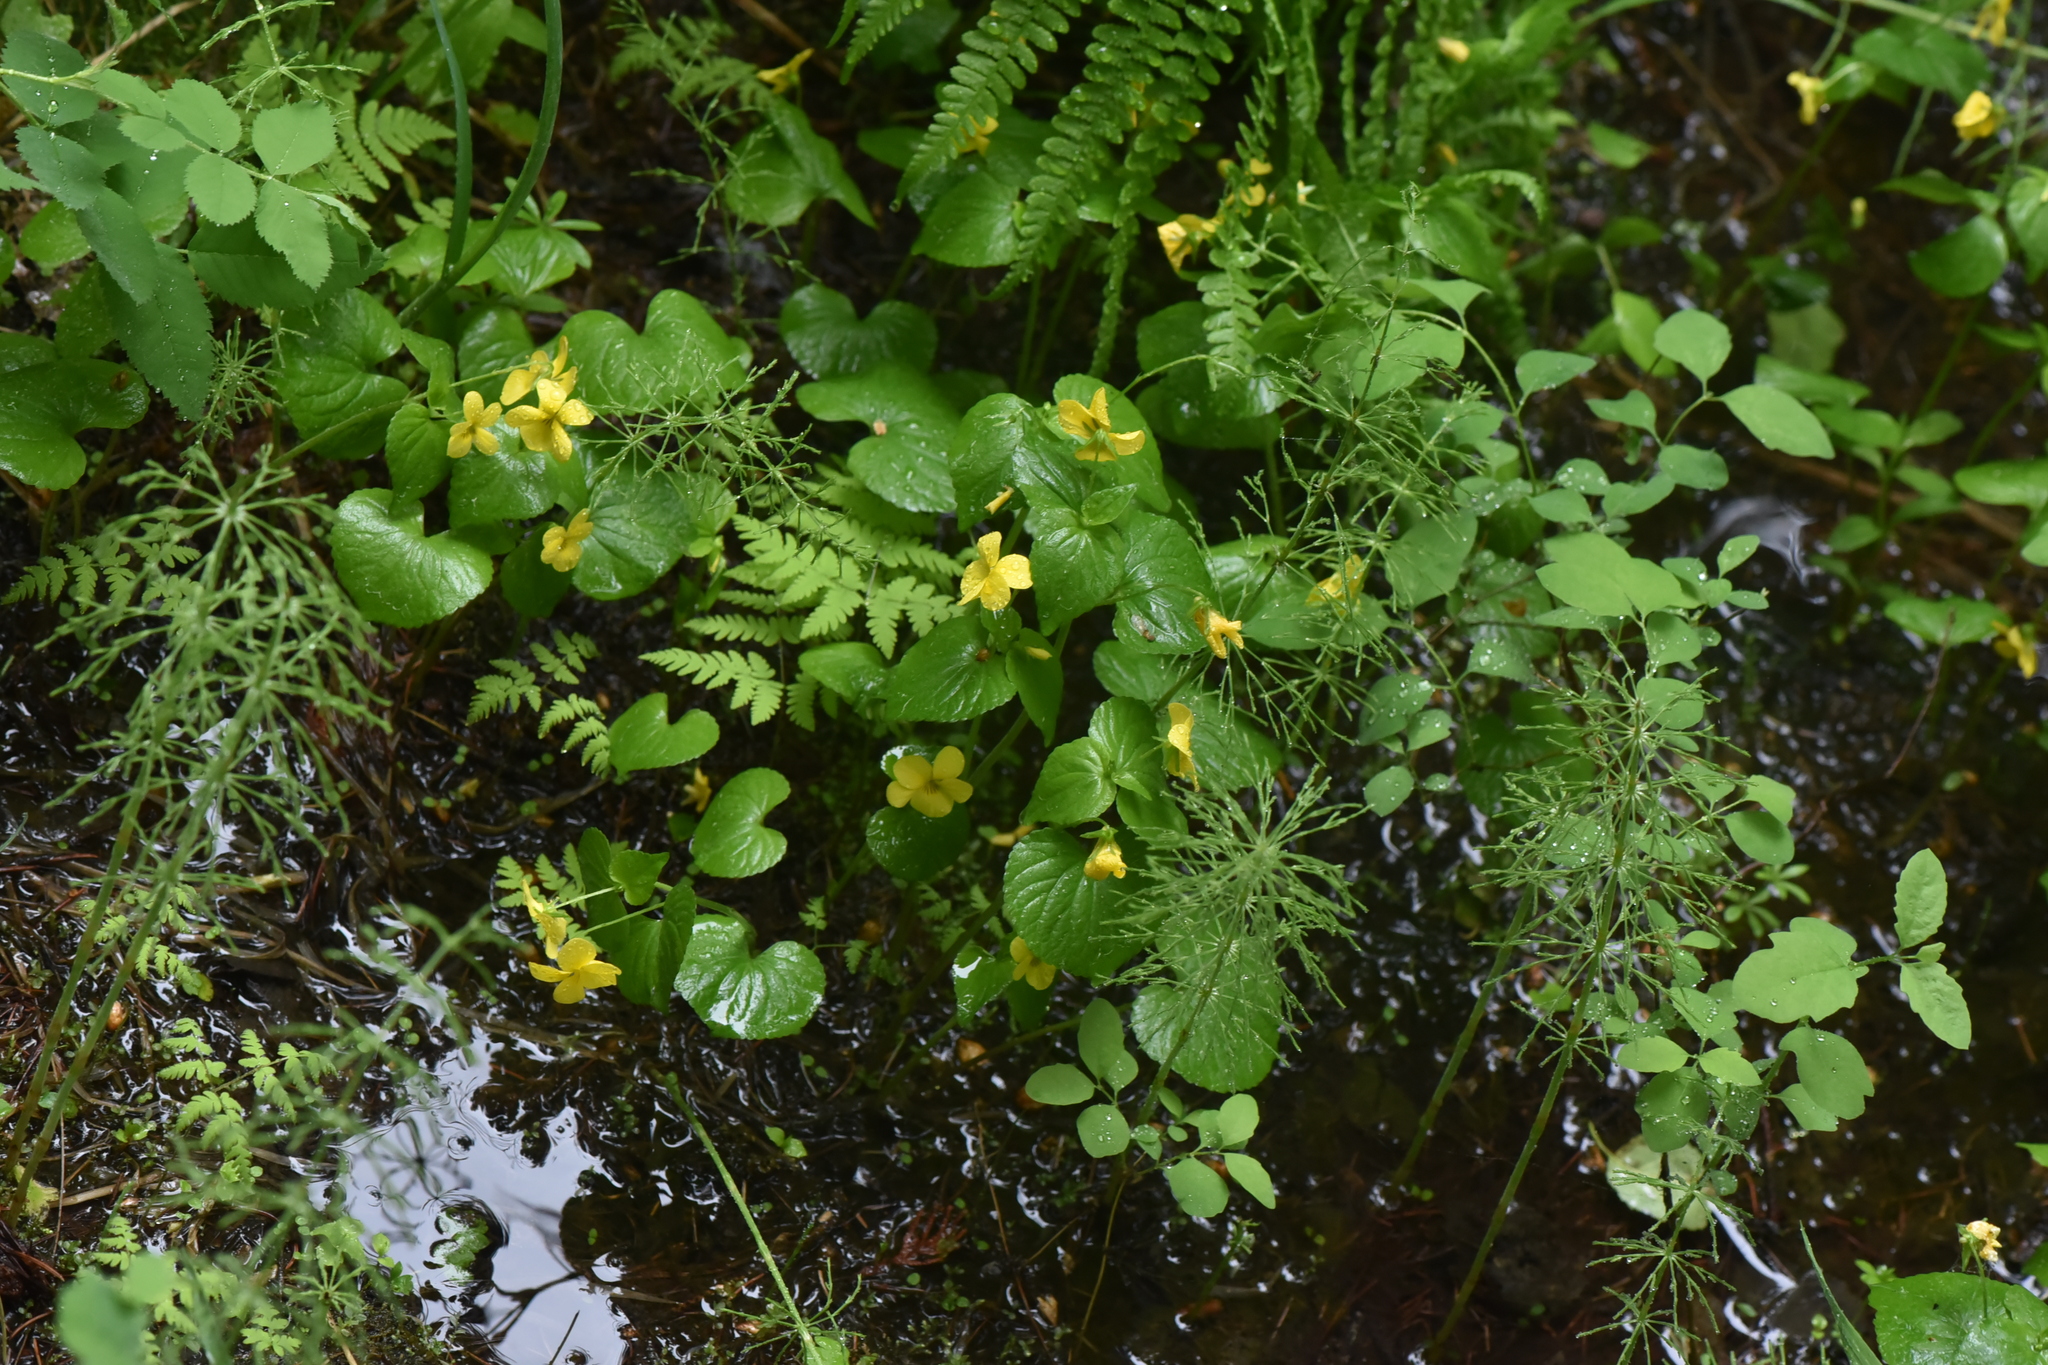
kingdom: Plantae
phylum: Tracheophyta
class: Magnoliopsida
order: Malpighiales
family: Violaceae
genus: Viola
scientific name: Viola glabella
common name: Stream violet
